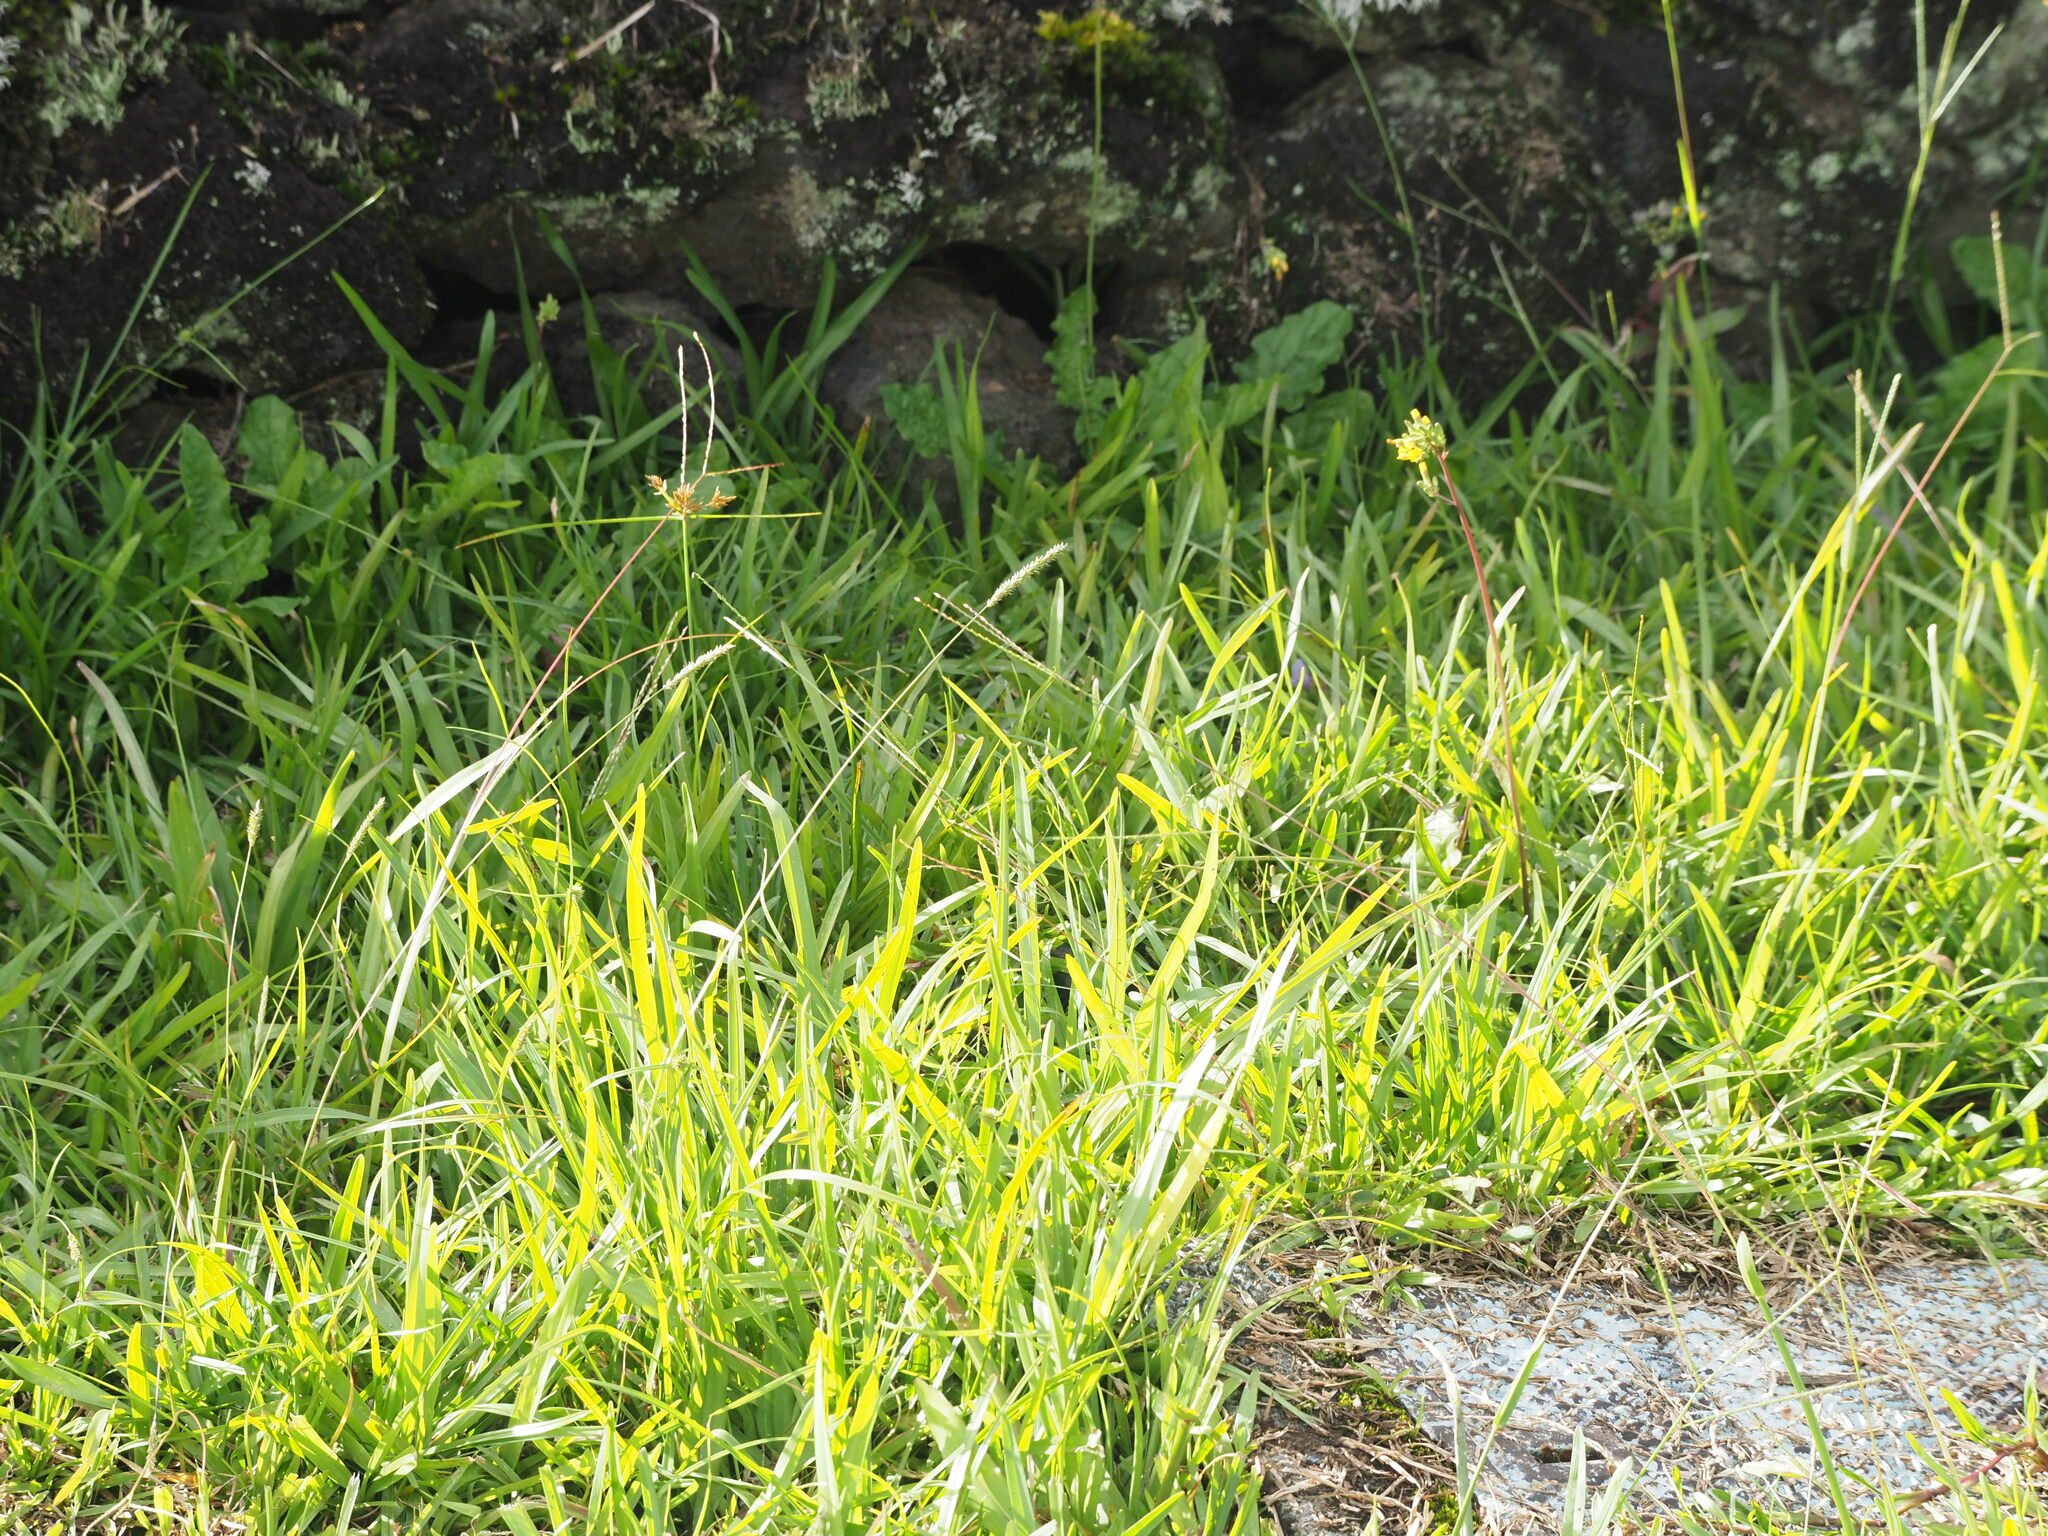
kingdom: Plantae
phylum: Tracheophyta
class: Liliopsida
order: Poales
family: Poaceae
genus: Sacciolepis
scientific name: Sacciolepis indica
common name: Glenwoodgrass
